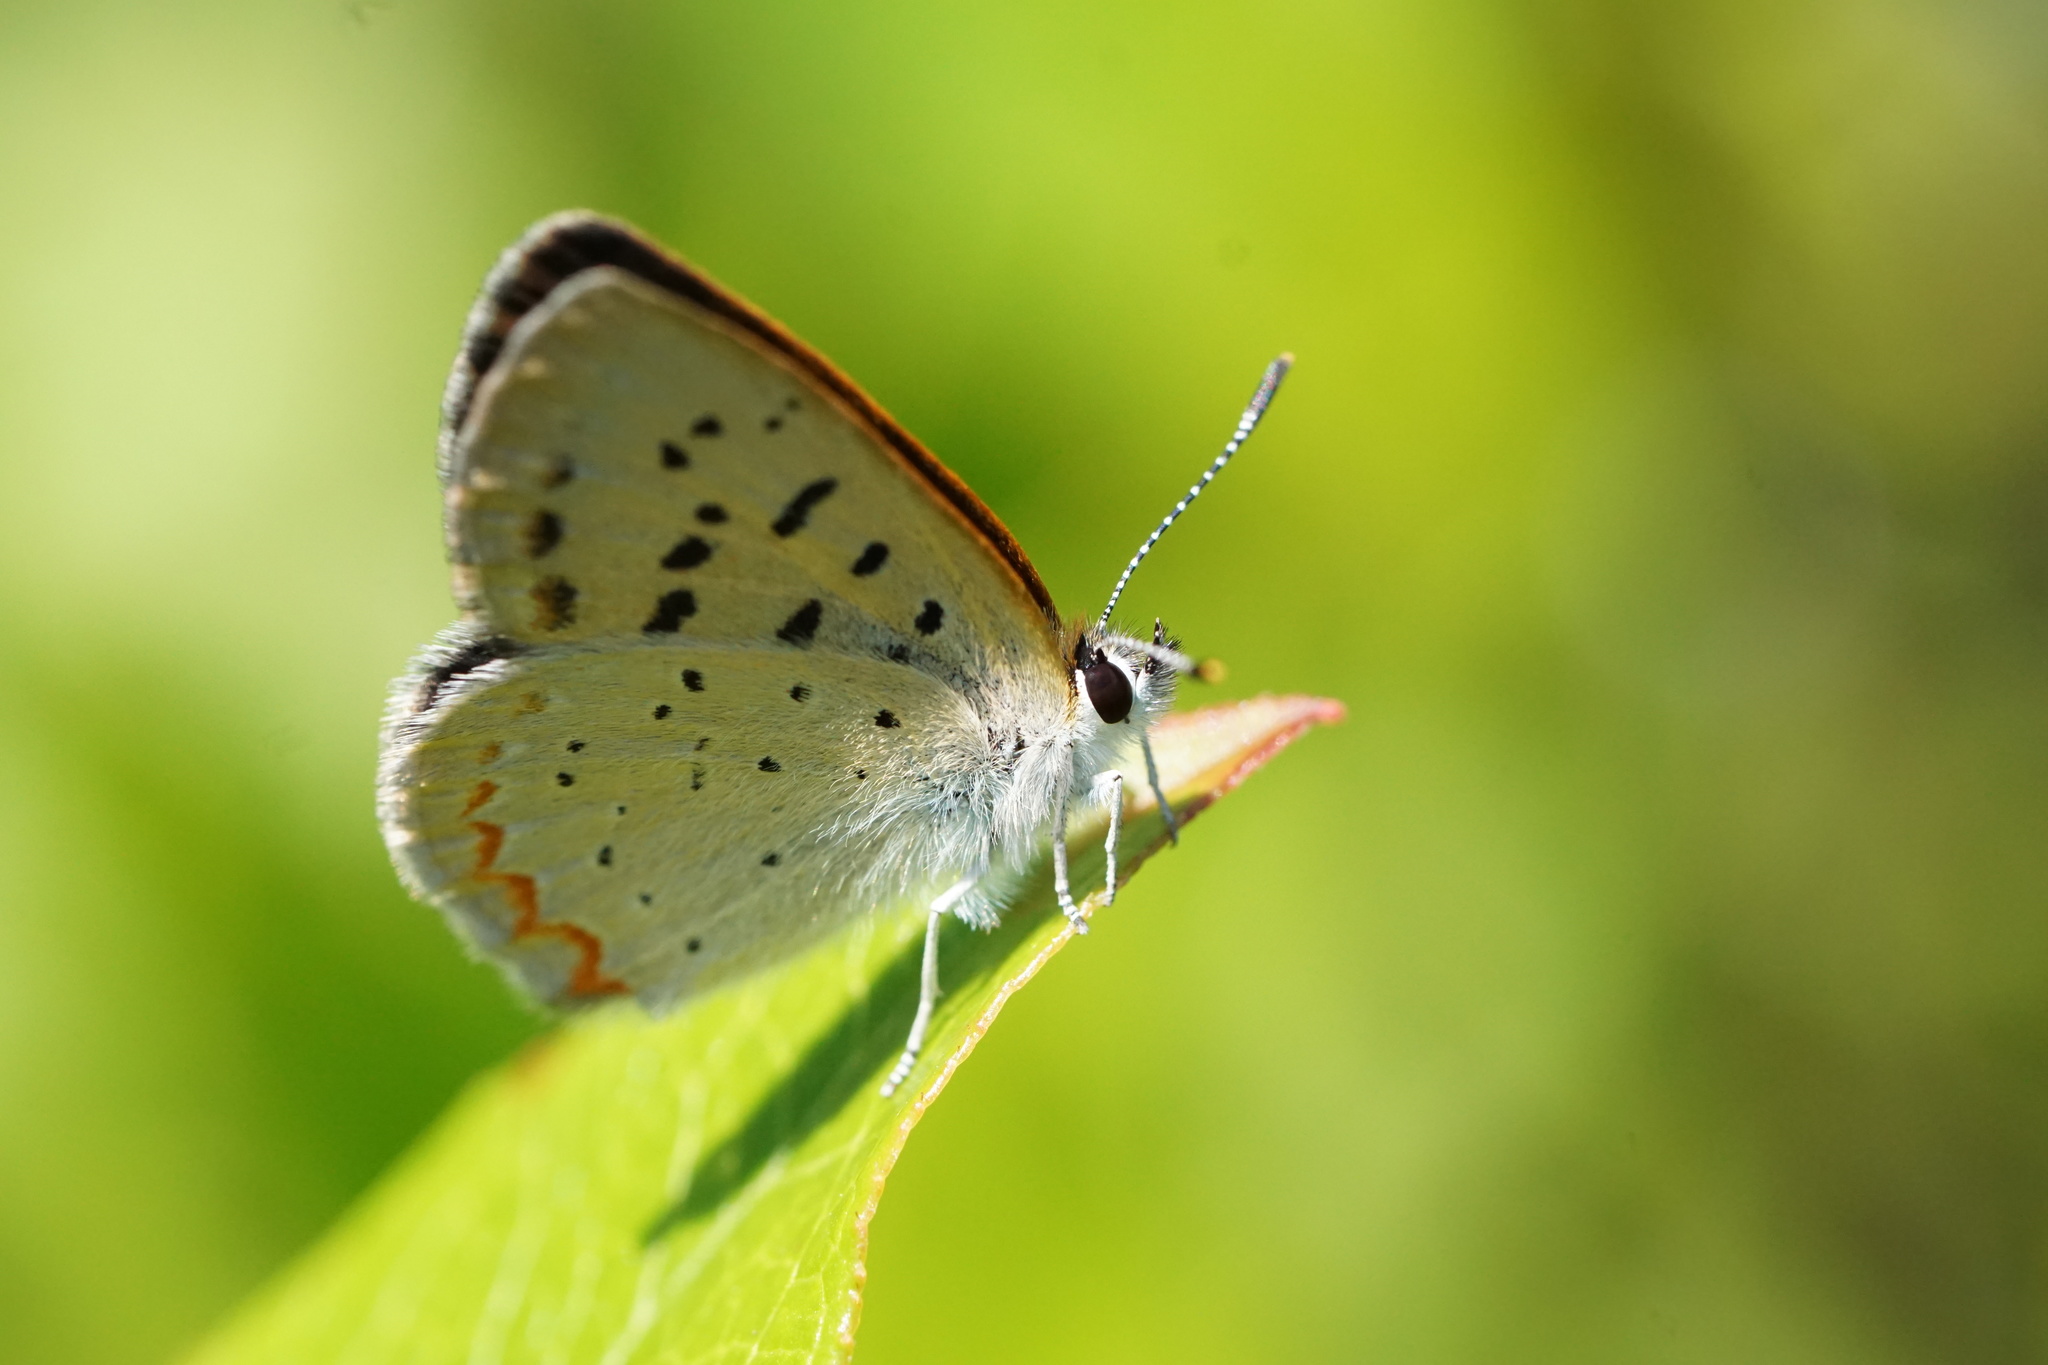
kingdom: Animalia
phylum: Arthropoda
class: Insecta
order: Lepidoptera
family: Lycaenidae
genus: Tharsalea
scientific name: Tharsalea epixanthe
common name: Bog copper
